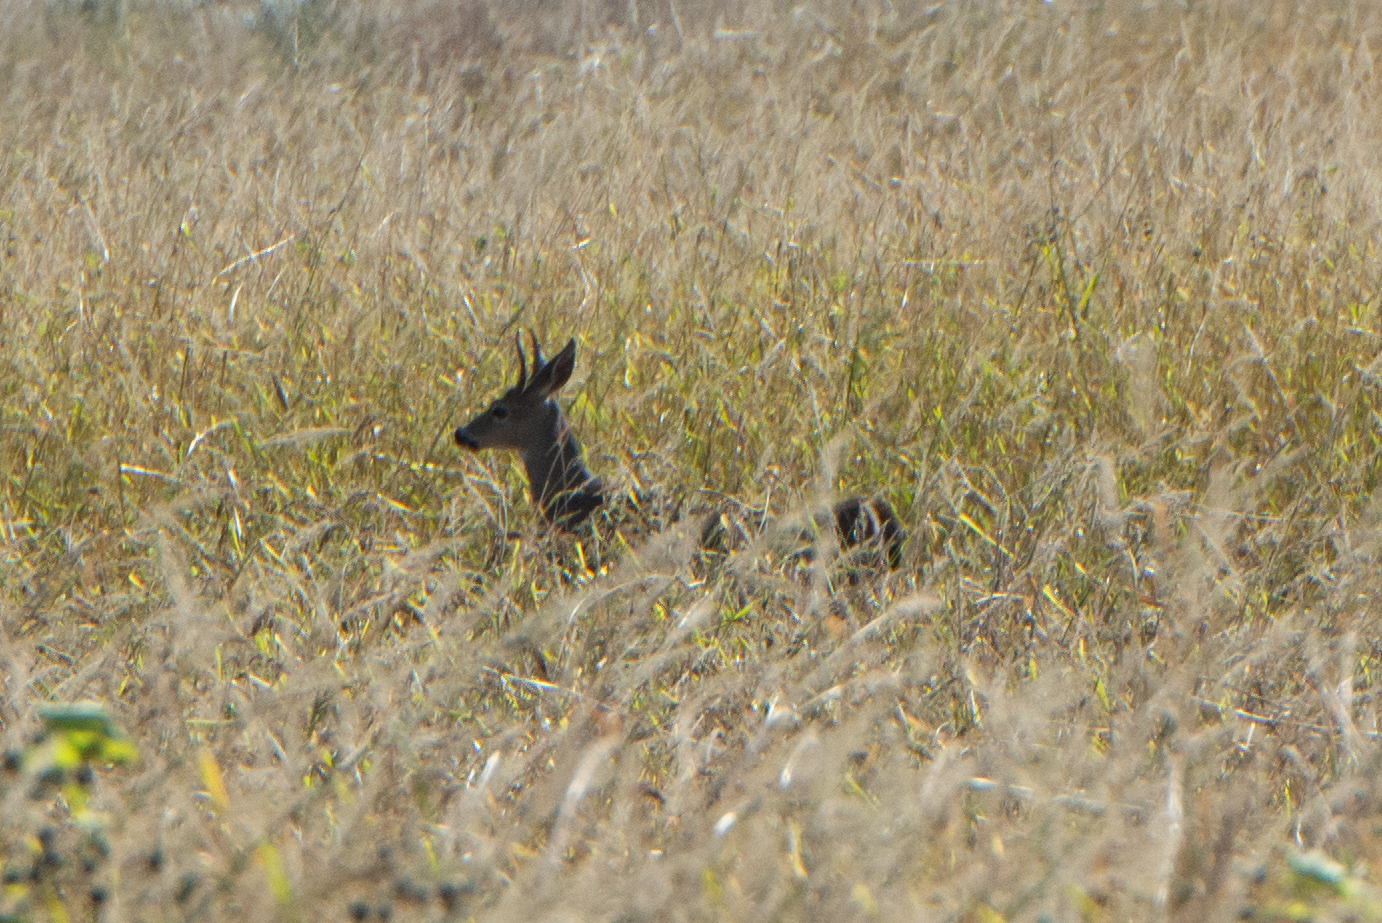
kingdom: Animalia
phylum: Chordata
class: Mammalia
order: Artiodactyla
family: Cervidae
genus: Odocoileus
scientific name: Odocoileus hemionus
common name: Mule deer
